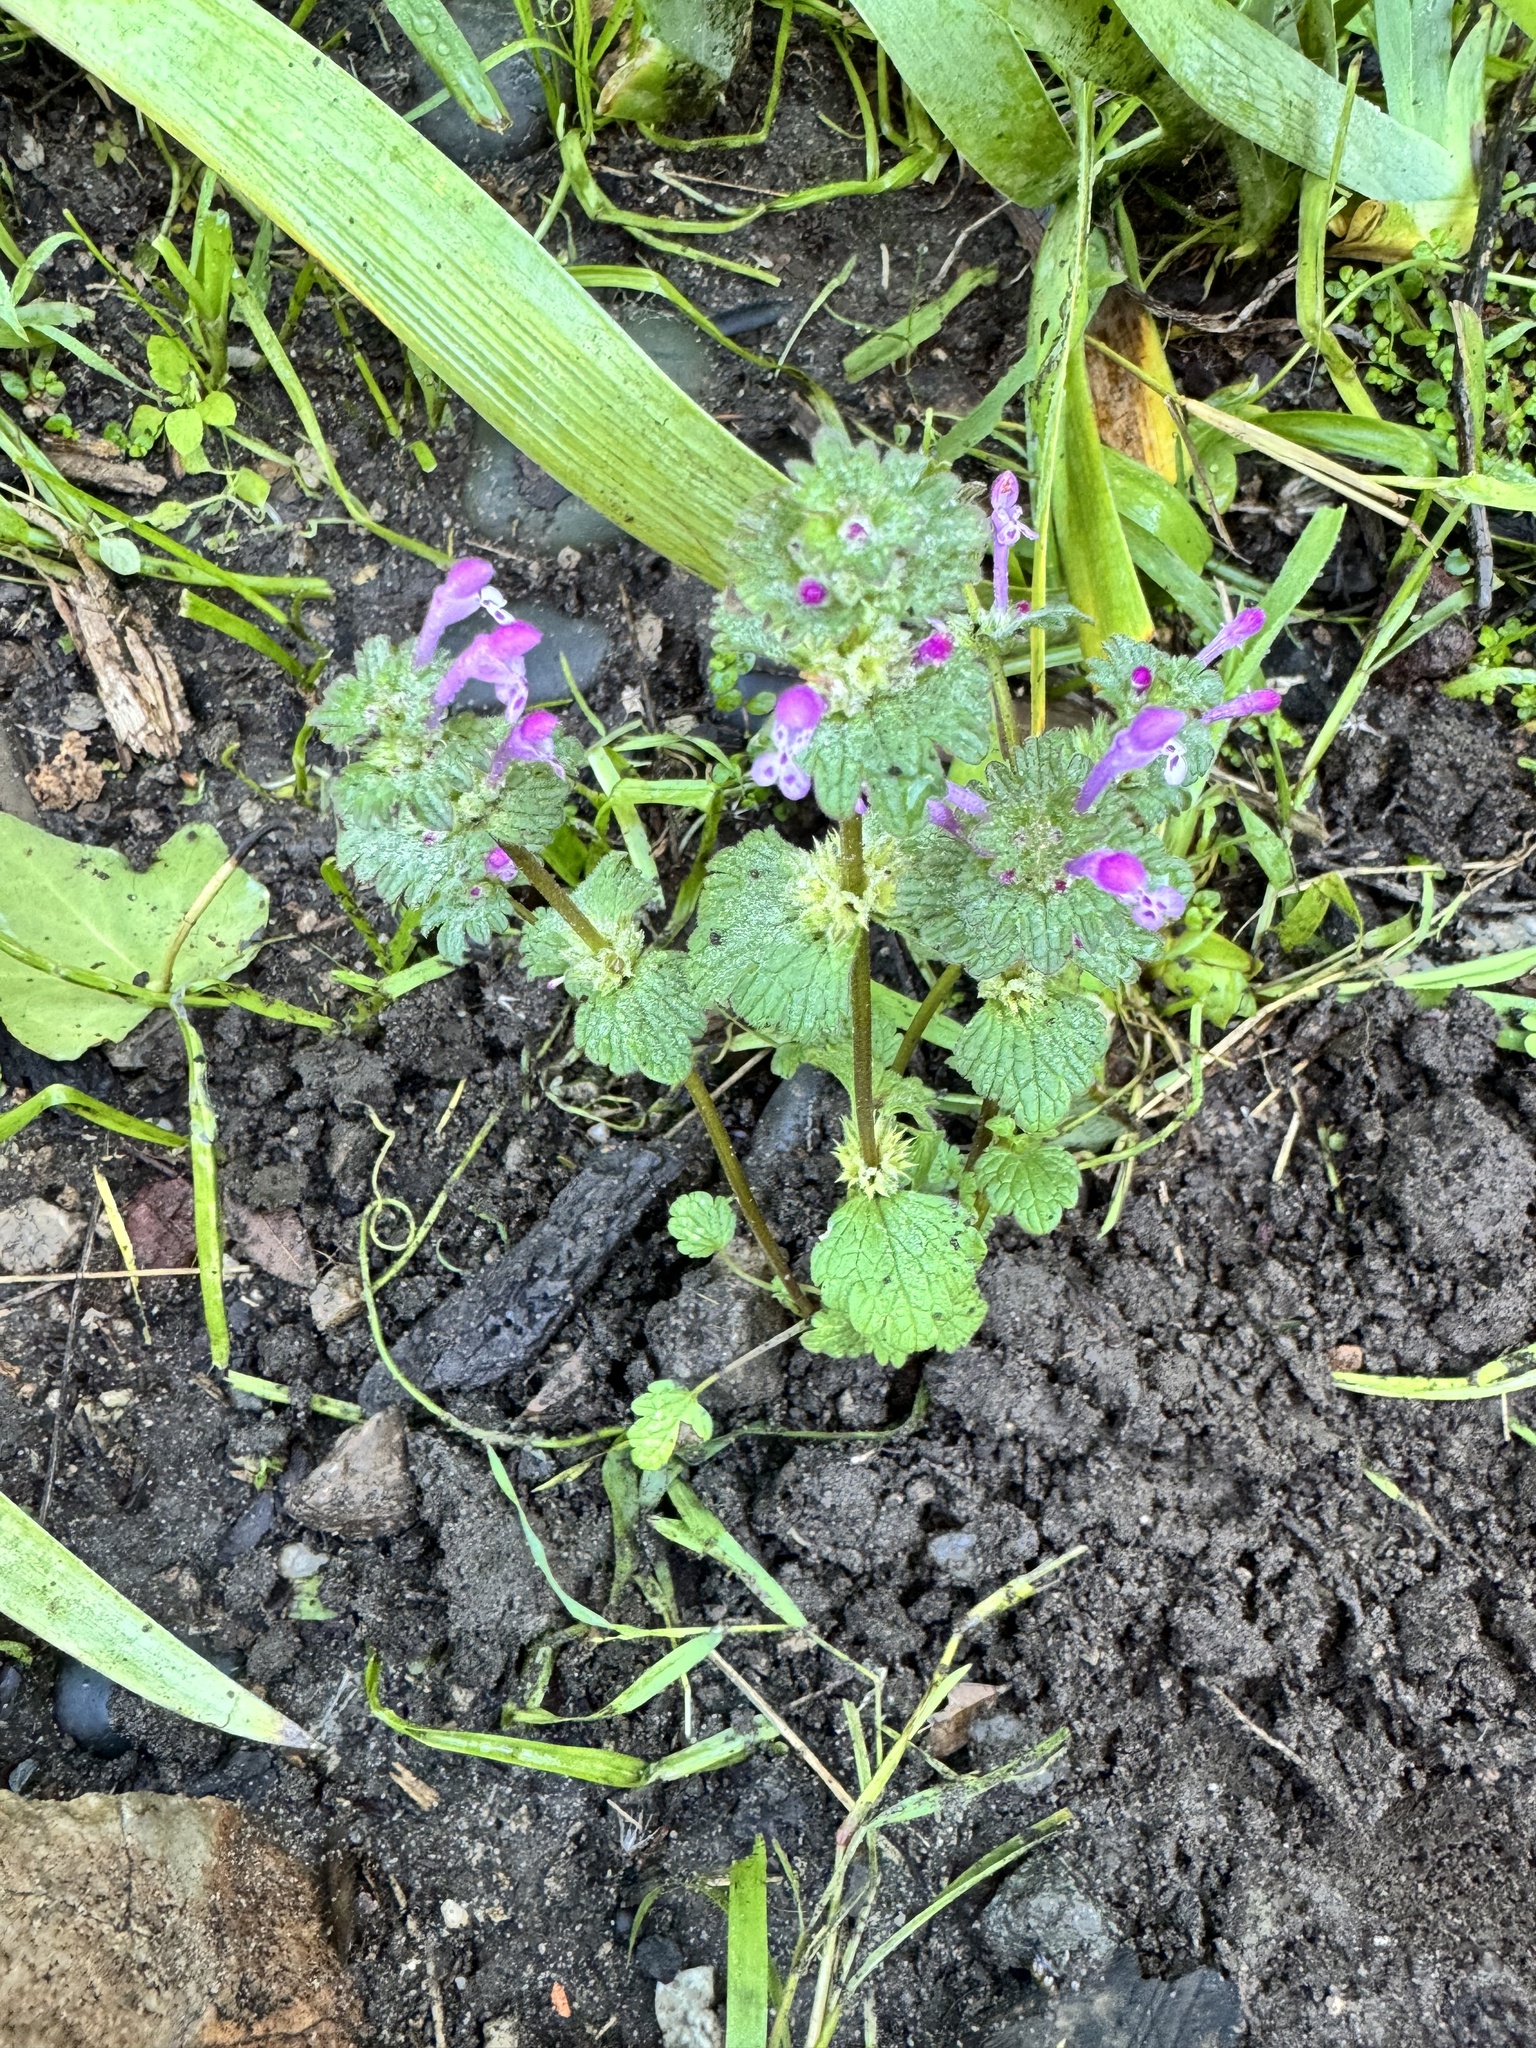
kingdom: Plantae
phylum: Tracheophyta
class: Magnoliopsida
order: Lamiales
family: Lamiaceae
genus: Lamium
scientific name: Lamium amplexicaule
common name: Henbit dead-nettle
